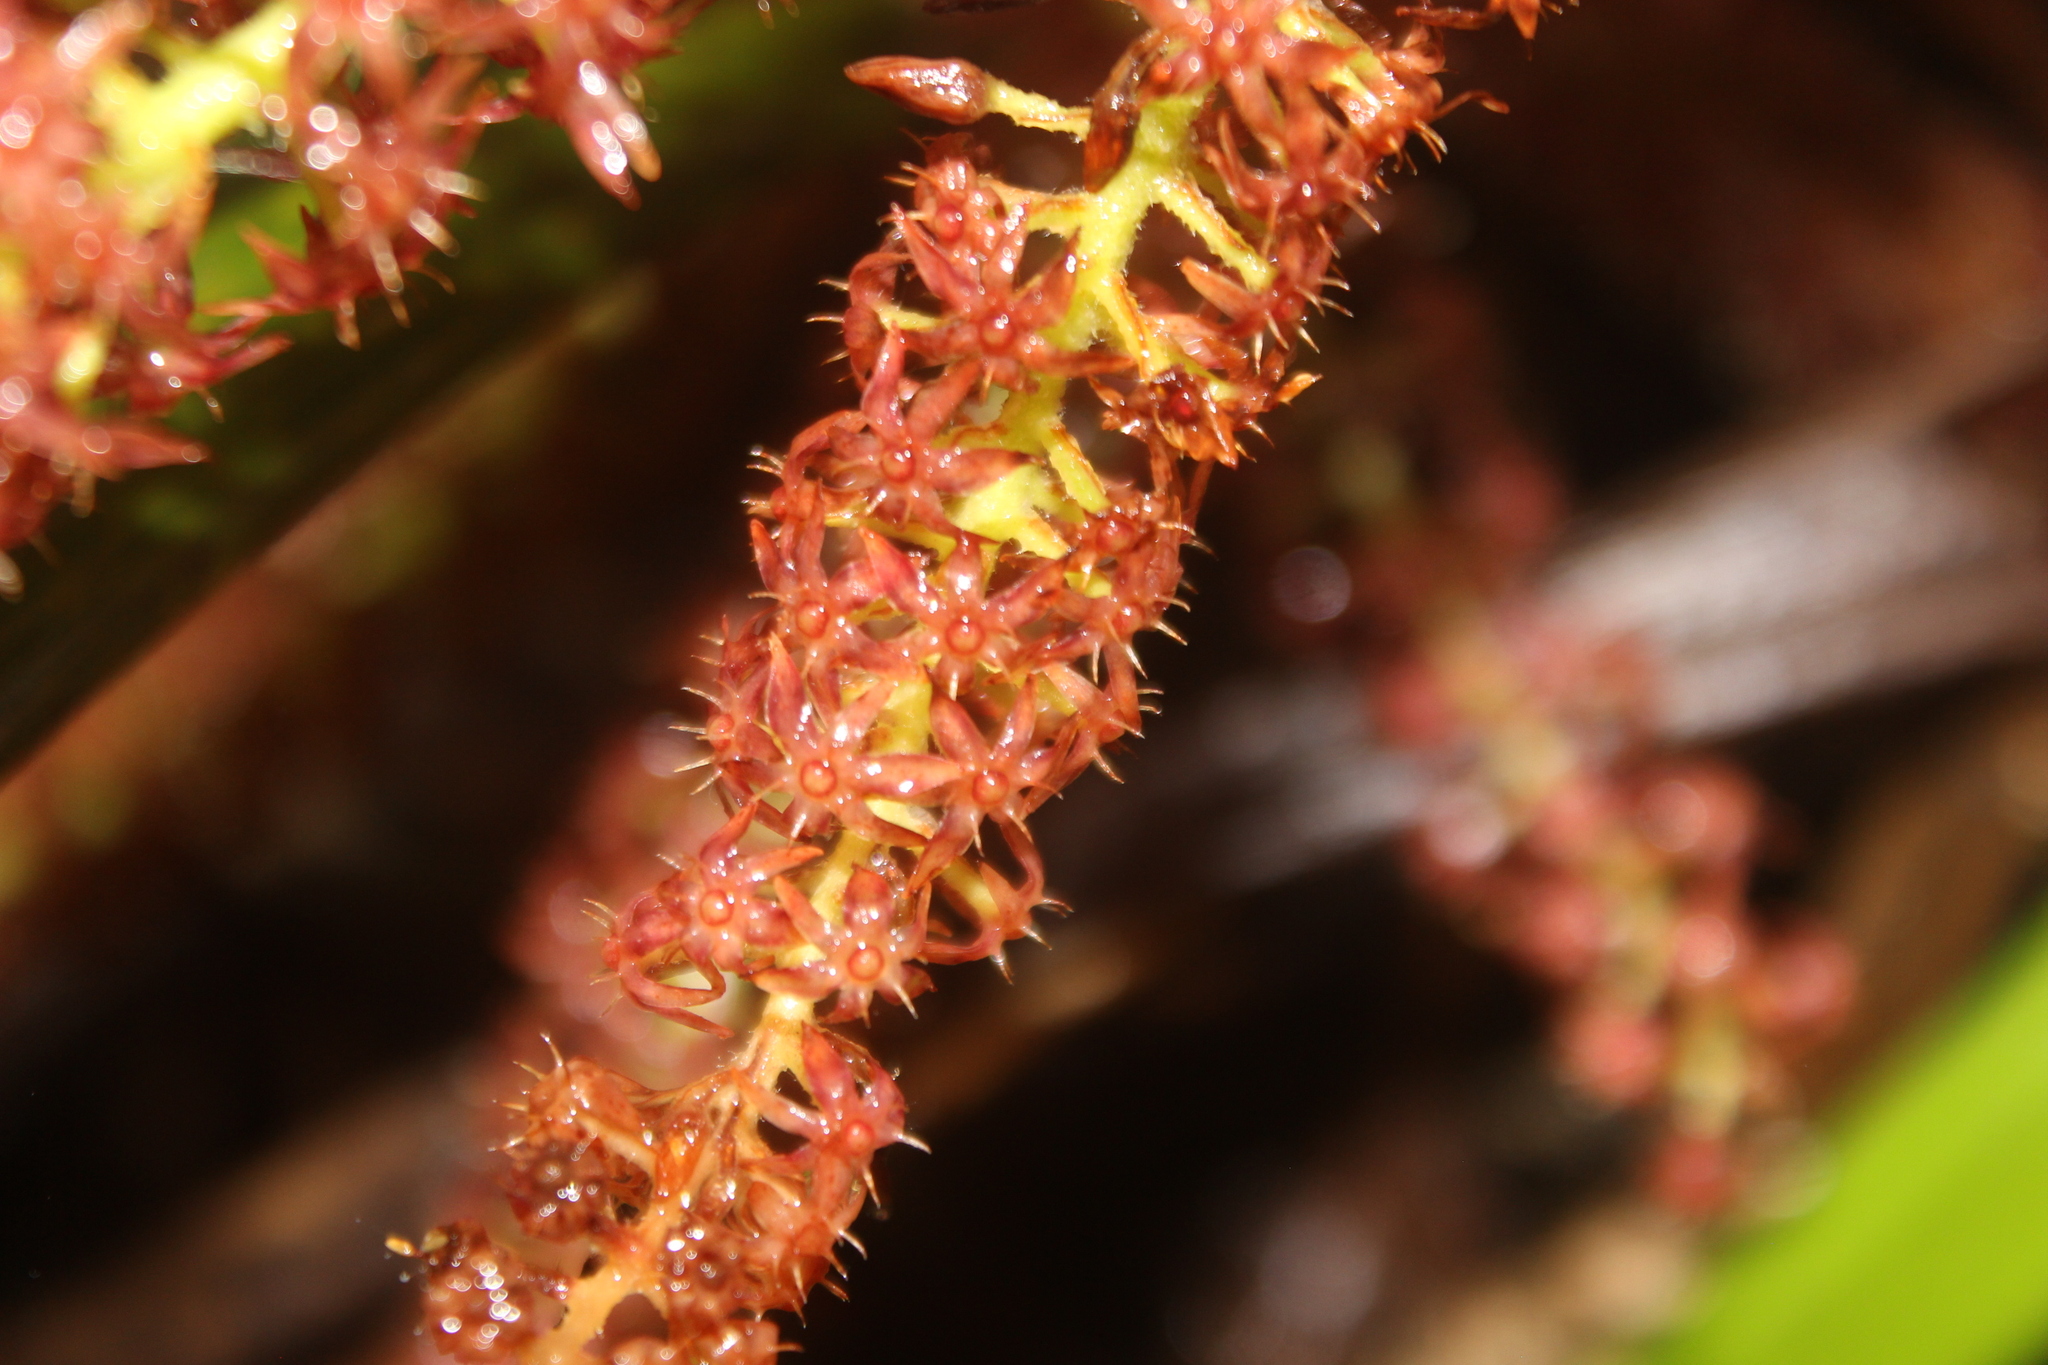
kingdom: Plantae
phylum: Tracheophyta
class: Liliopsida
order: Asparagales
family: Asteliaceae
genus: Astelia
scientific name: Astelia solandri
